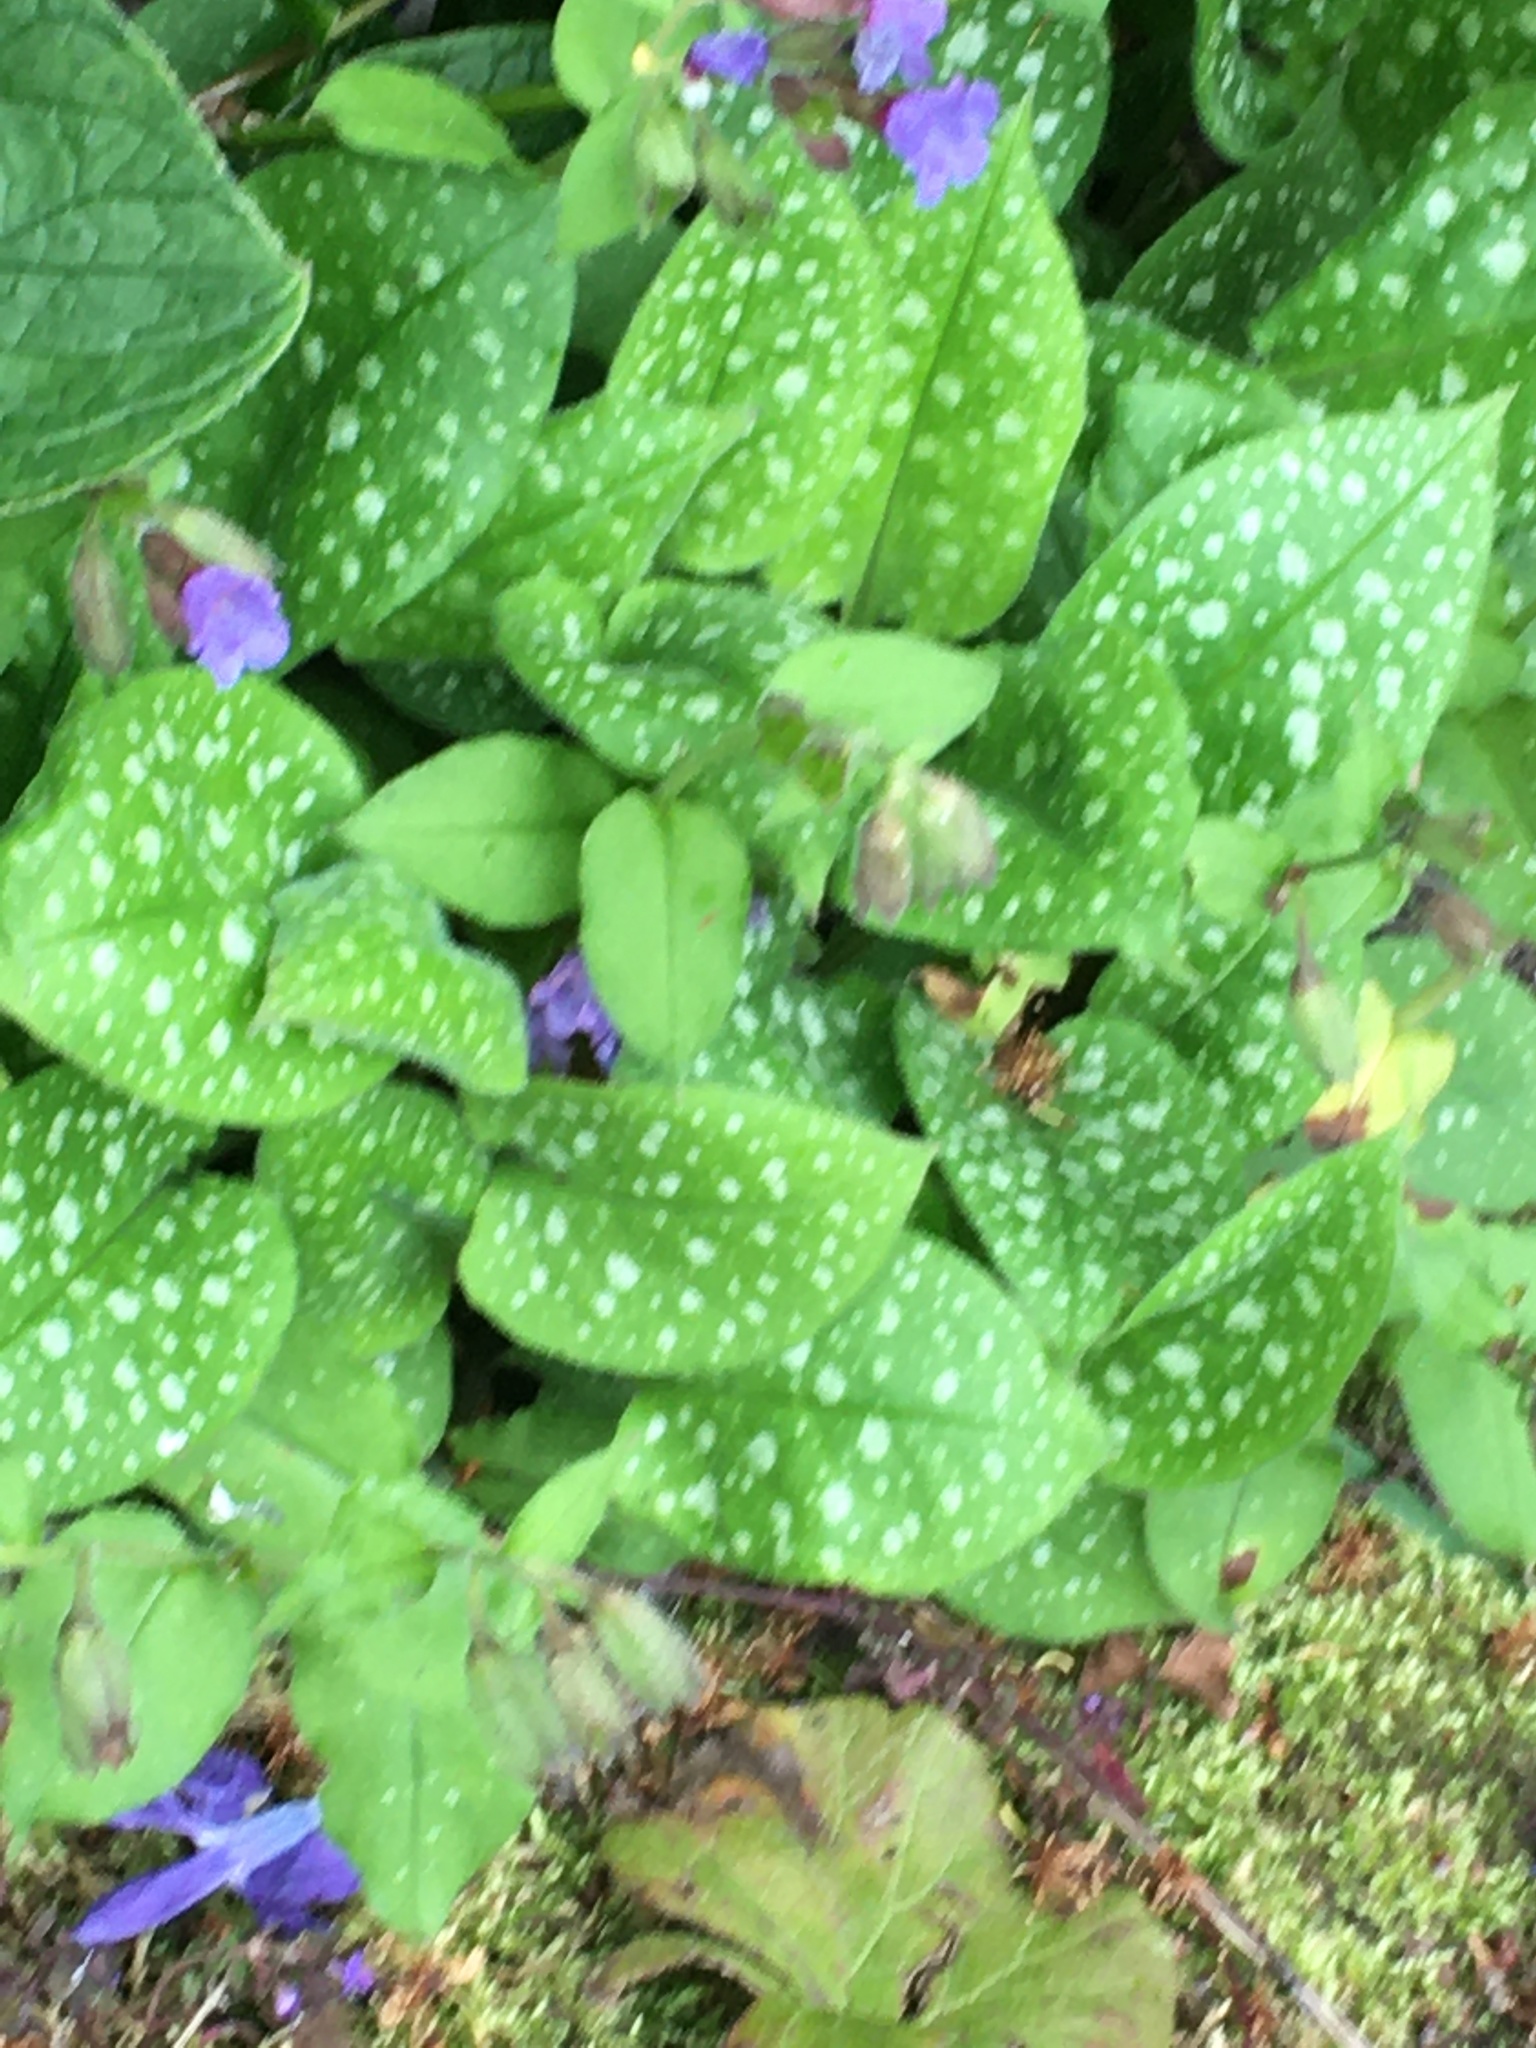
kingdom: Plantae
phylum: Tracheophyta
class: Magnoliopsida
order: Boraginales
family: Boraginaceae
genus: Pulmonaria
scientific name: Pulmonaria officinalis
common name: Lungwort
